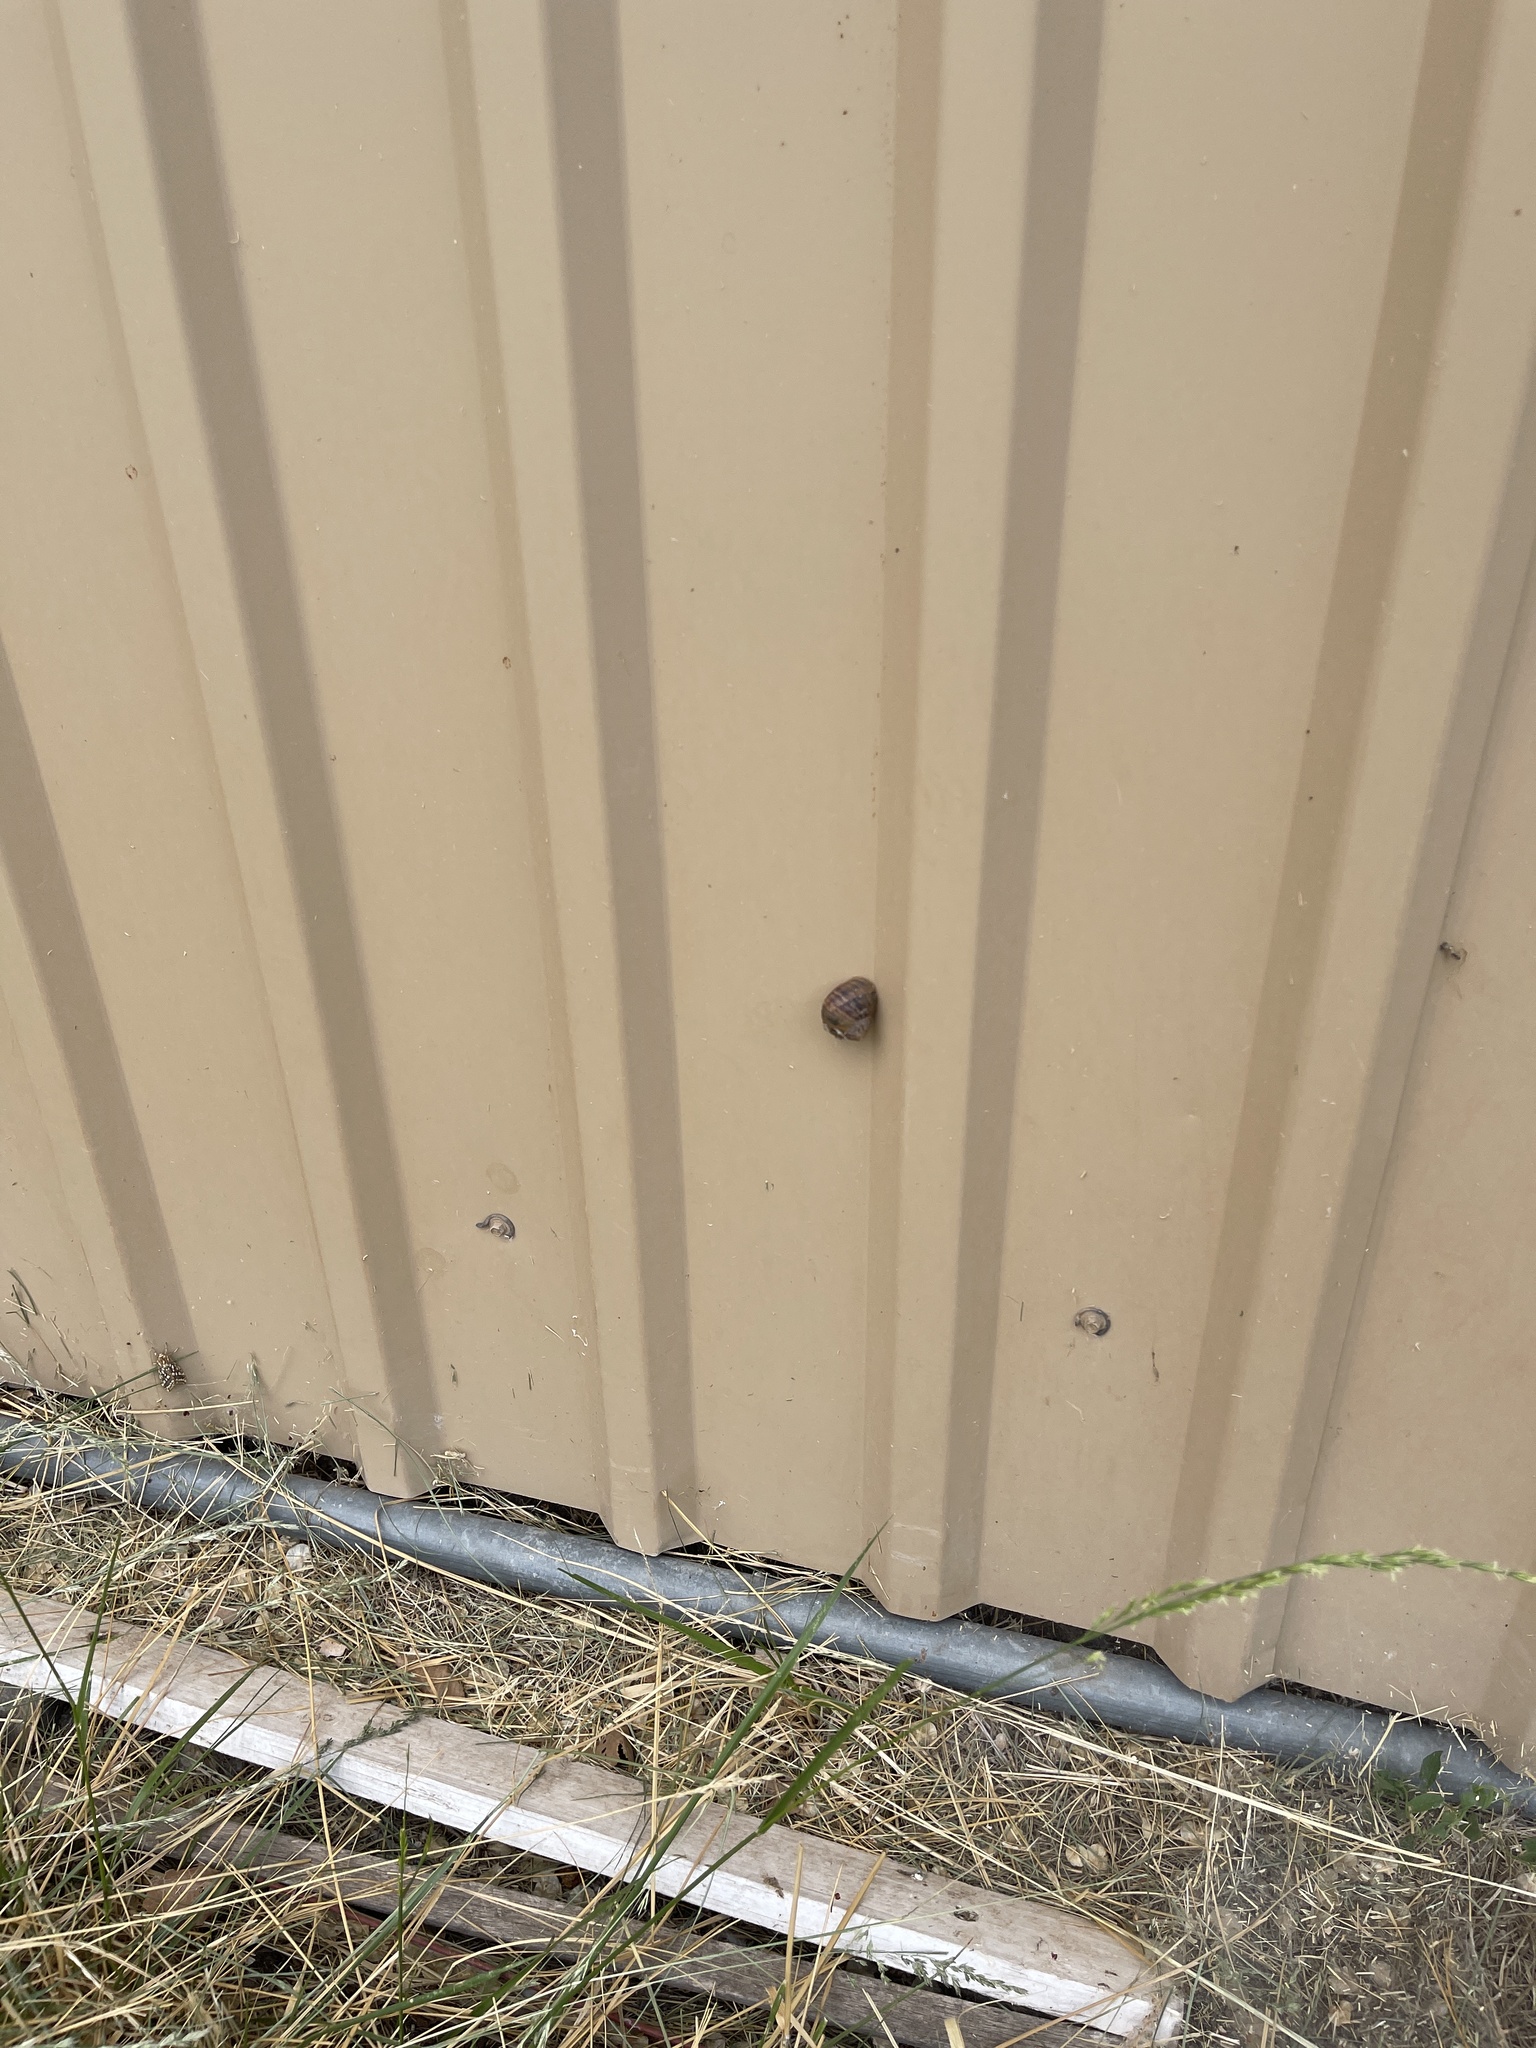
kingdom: Animalia
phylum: Mollusca
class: Gastropoda
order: Stylommatophora
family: Helicidae
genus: Cornu
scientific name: Cornu aspersum
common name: Brown garden snail
